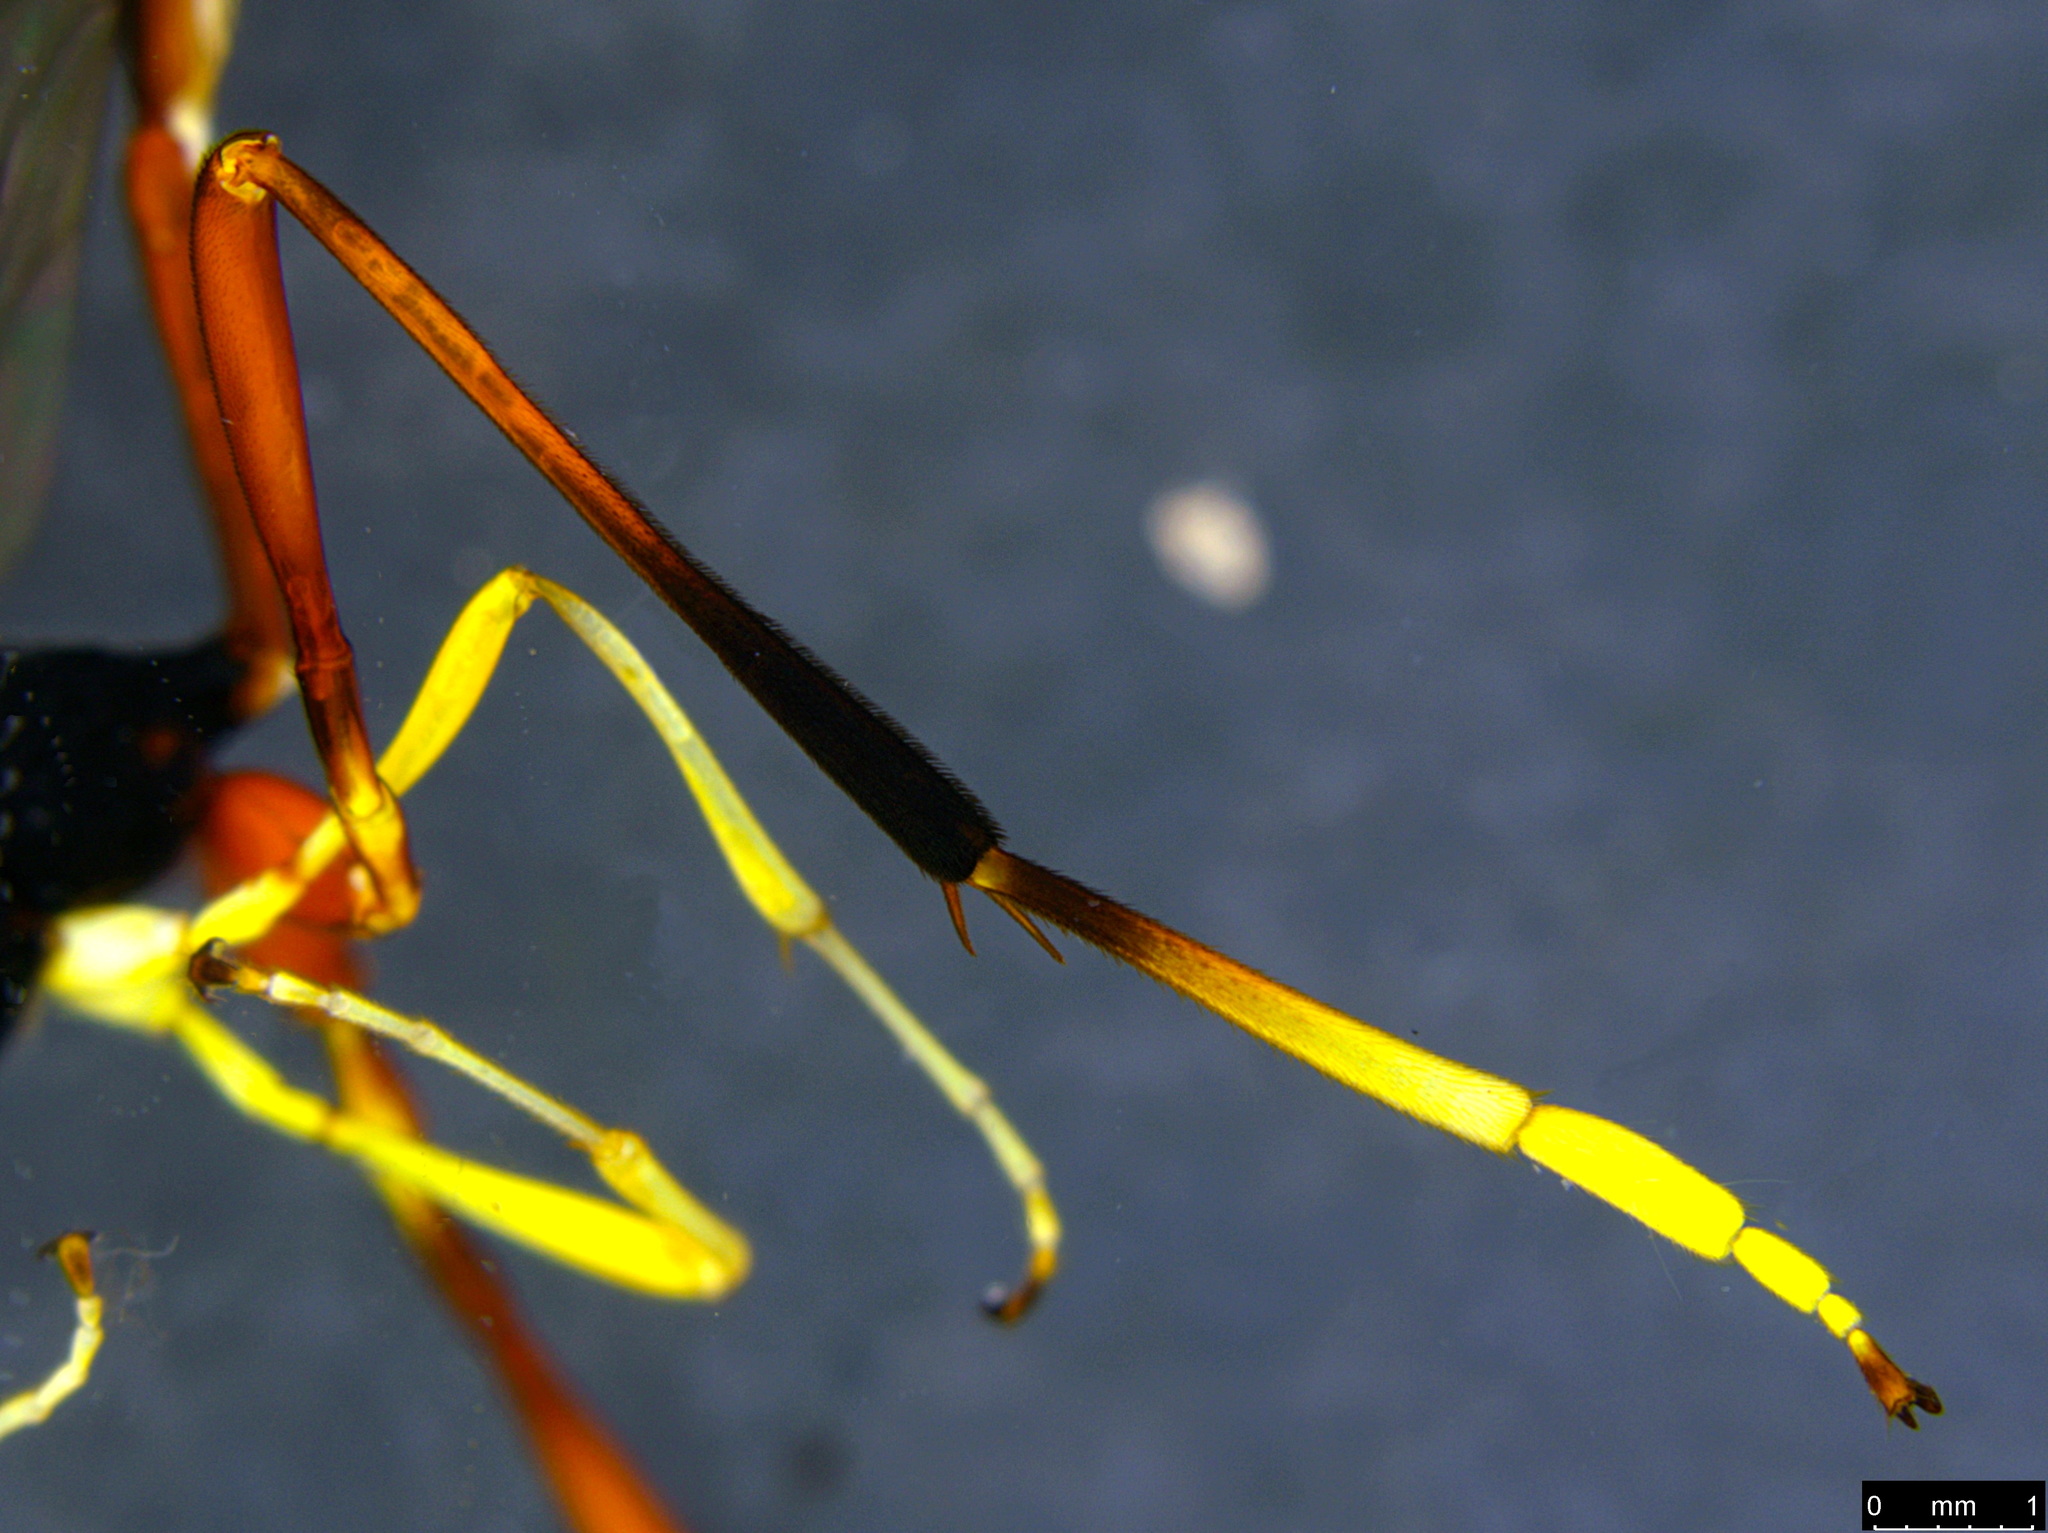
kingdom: Animalia
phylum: Arthropoda
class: Insecta
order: Hymenoptera
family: Ichneumonidae
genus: Heteropelma
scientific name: Heteropelma scaposum
